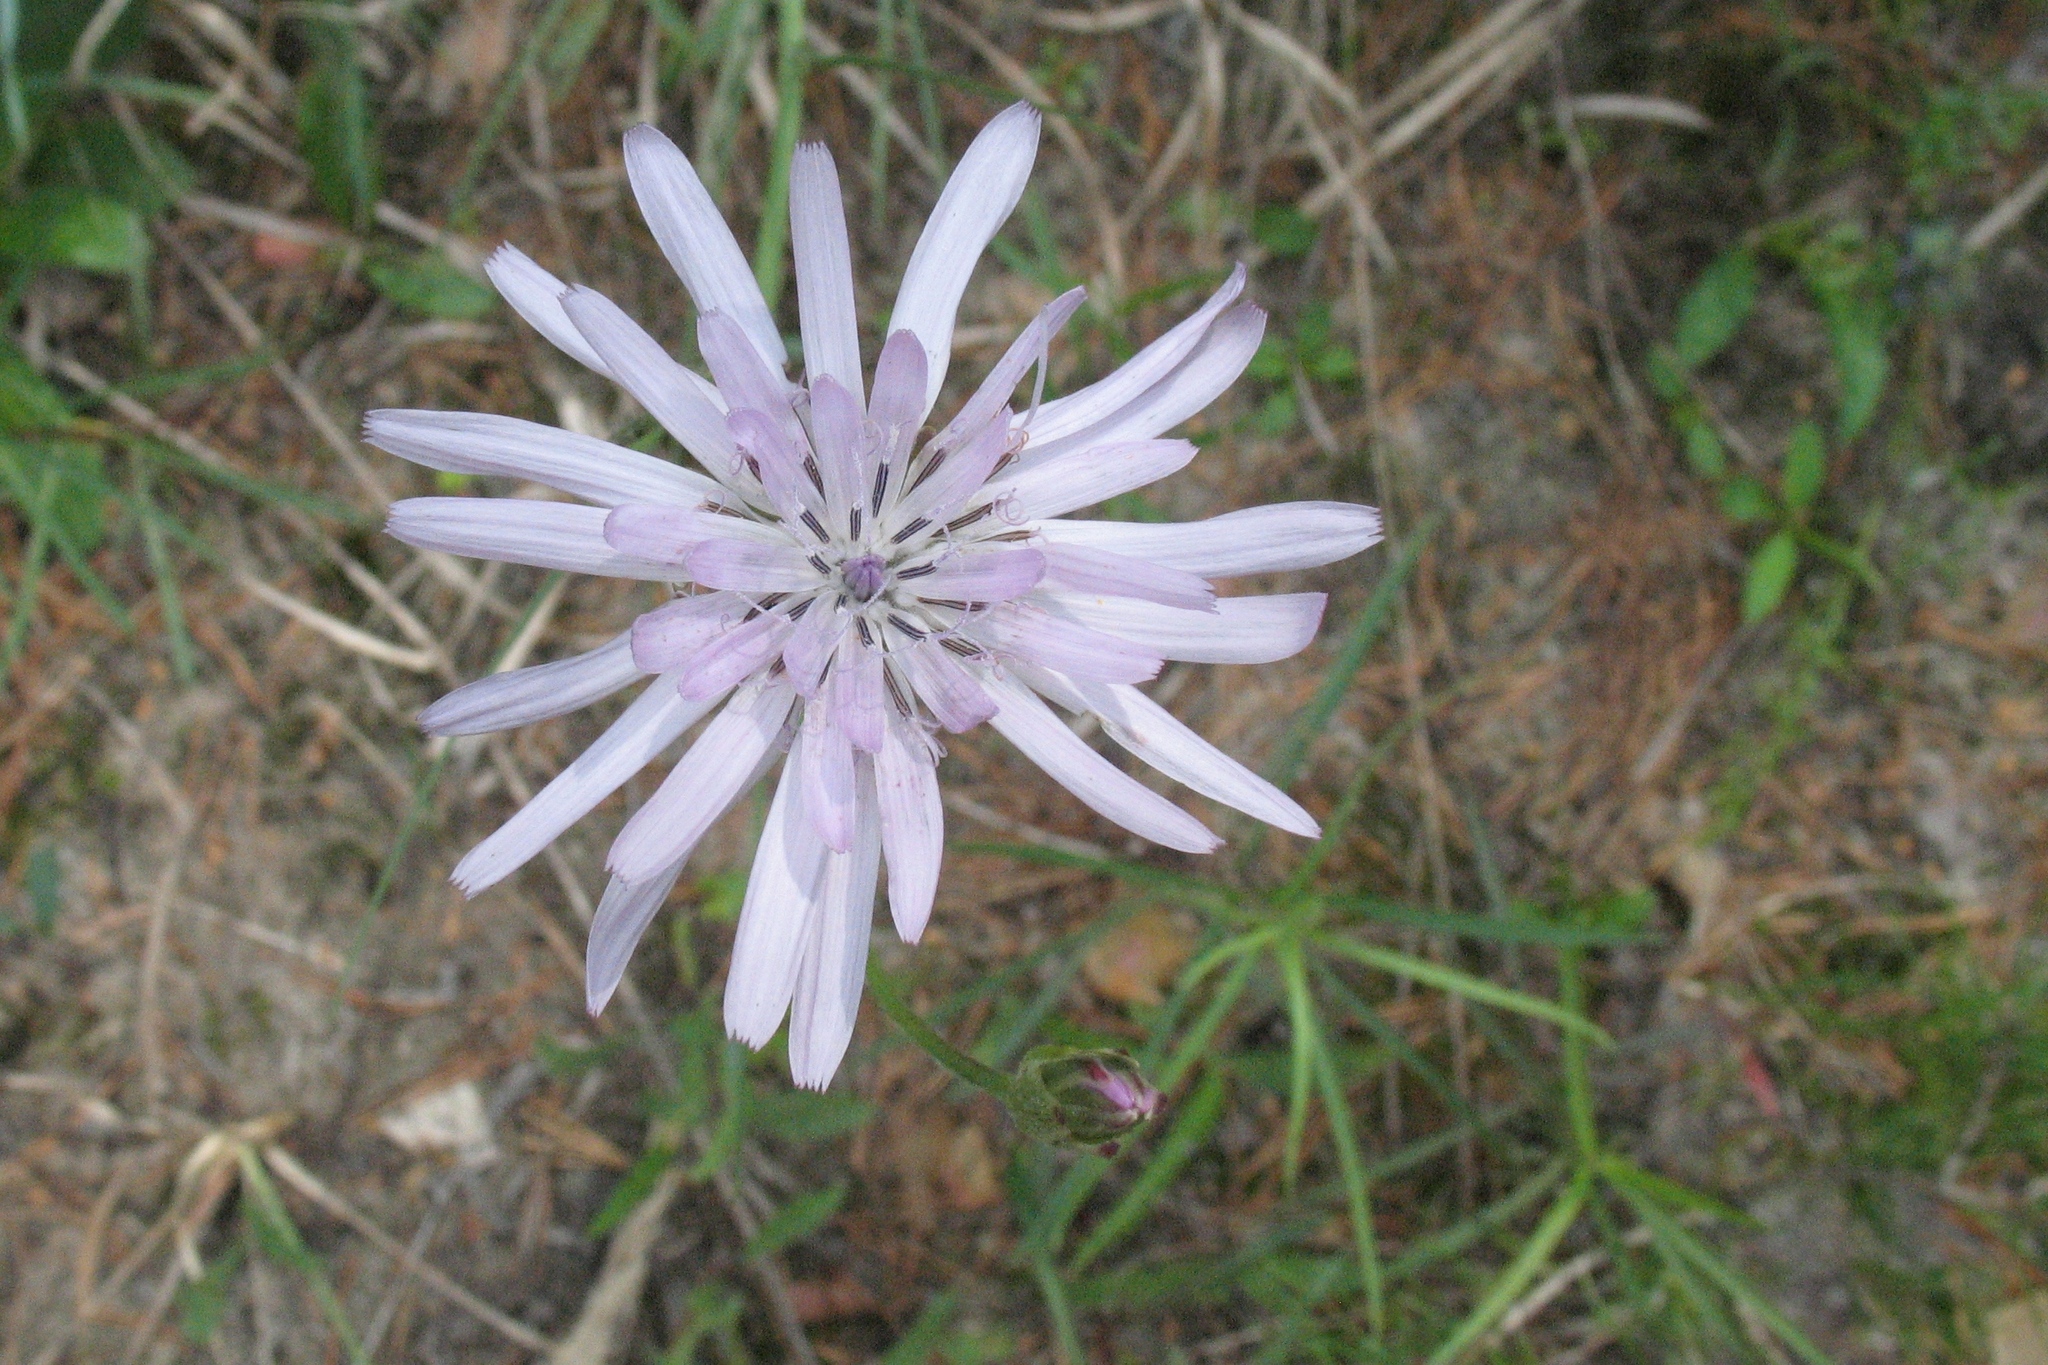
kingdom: Plantae
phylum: Tracheophyta
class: Magnoliopsida
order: Asterales
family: Asteraceae
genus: Scorzonera
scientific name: Scorzonera purpurea
